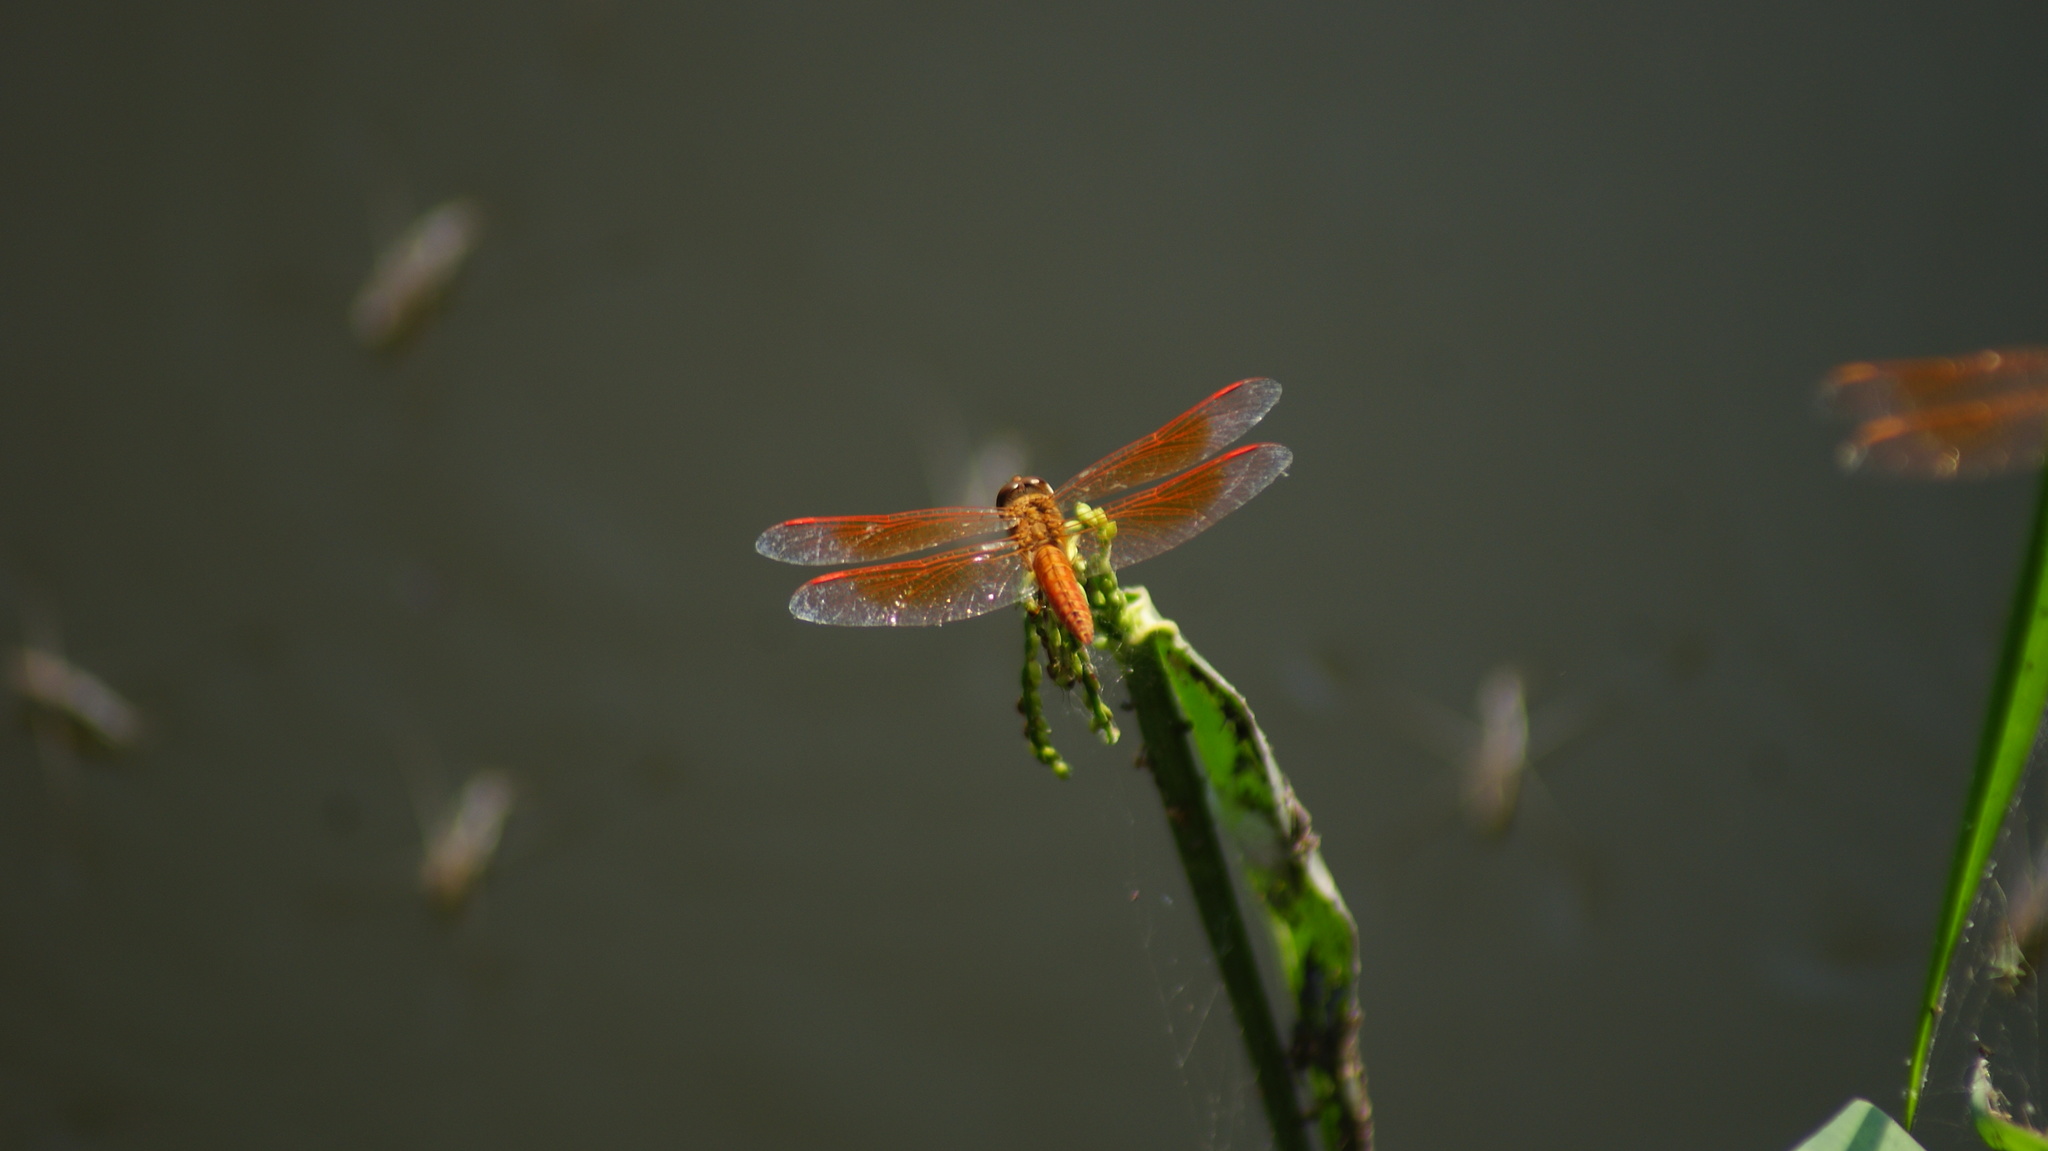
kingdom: Animalia
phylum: Arthropoda
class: Insecta
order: Odonata
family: Libellulidae
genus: Brachythemis
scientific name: Brachythemis contaminata
